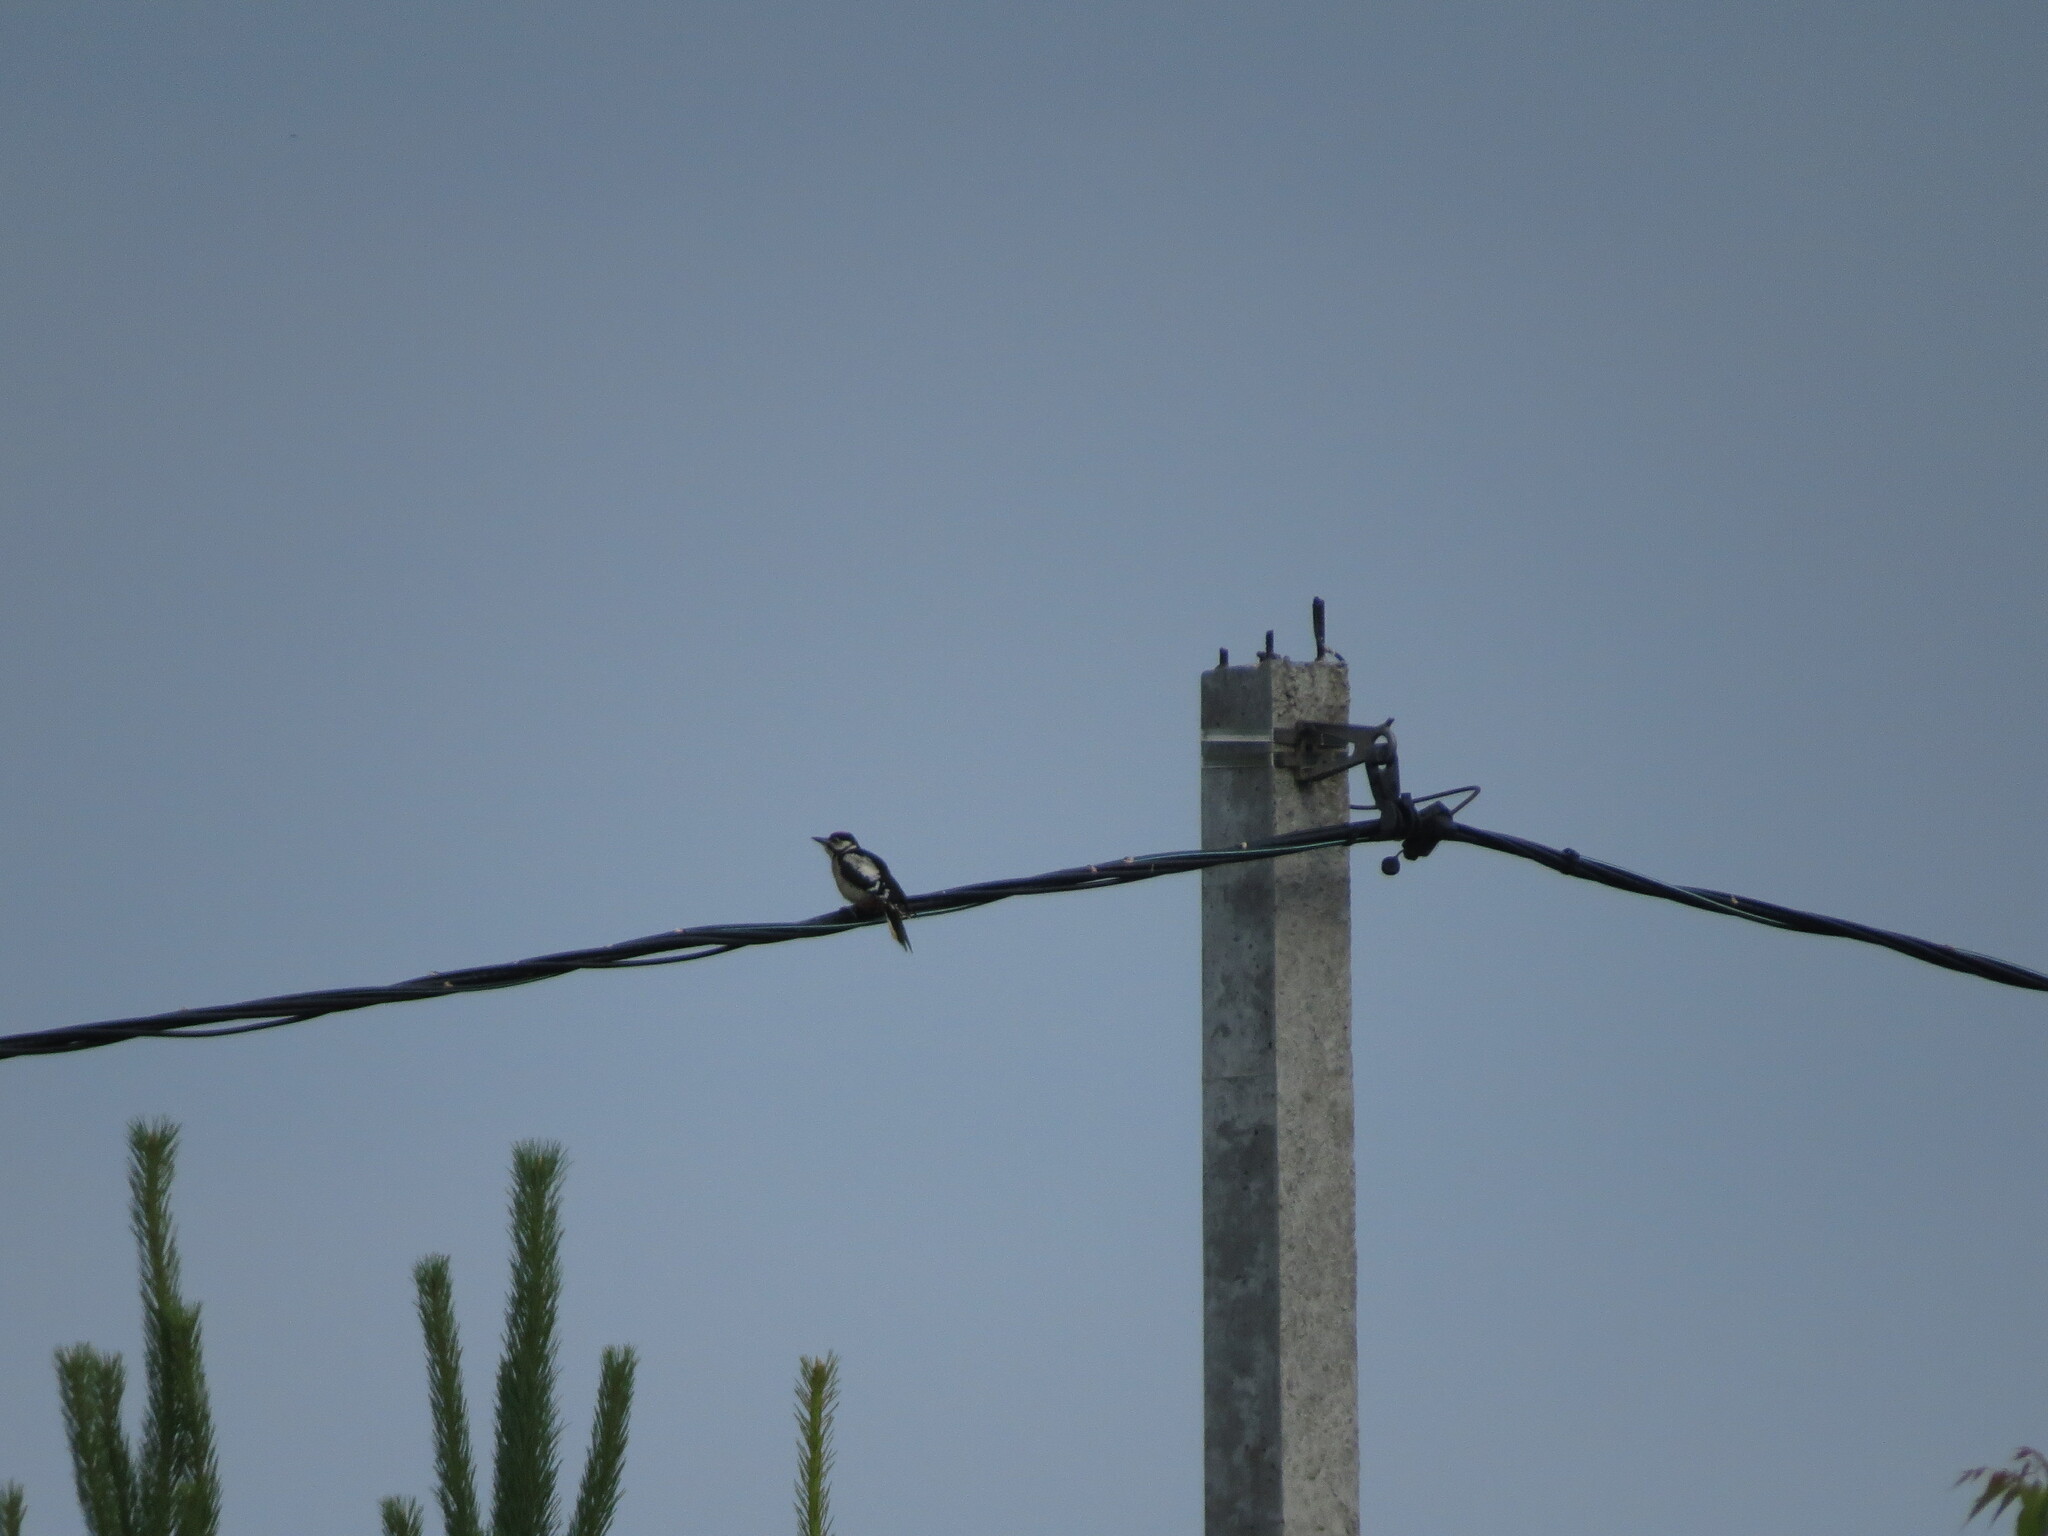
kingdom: Animalia
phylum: Chordata
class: Aves
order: Piciformes
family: Picidae
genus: Dendrocopos
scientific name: Dendrocopos major
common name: Great spotted woodpecker
